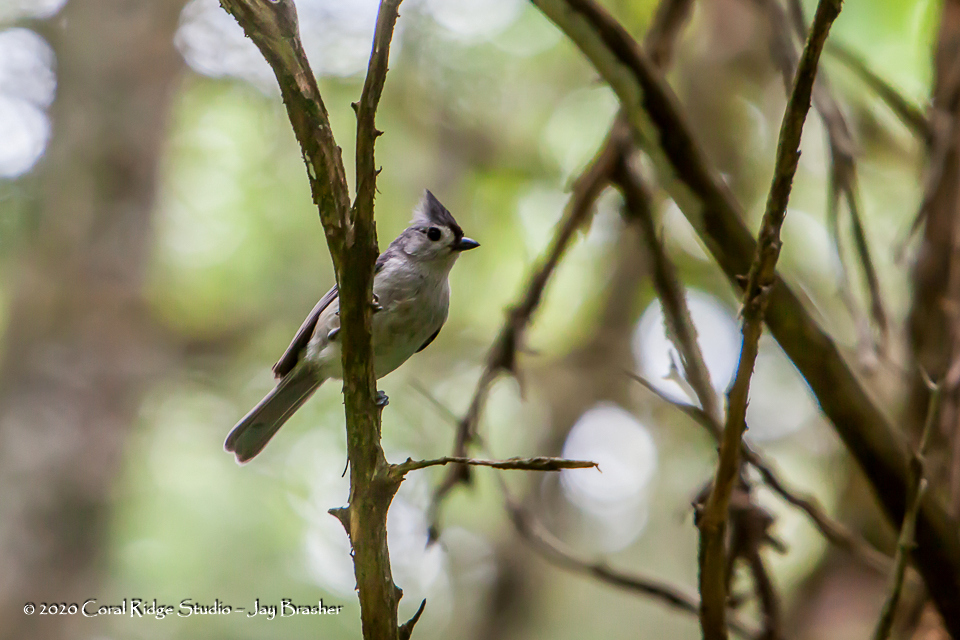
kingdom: Animalia
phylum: Chordata
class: Aves
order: Passeriformes
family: Paridae
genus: Baeolophus
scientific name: Baeolophus bicolor
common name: Tufted titmouse
